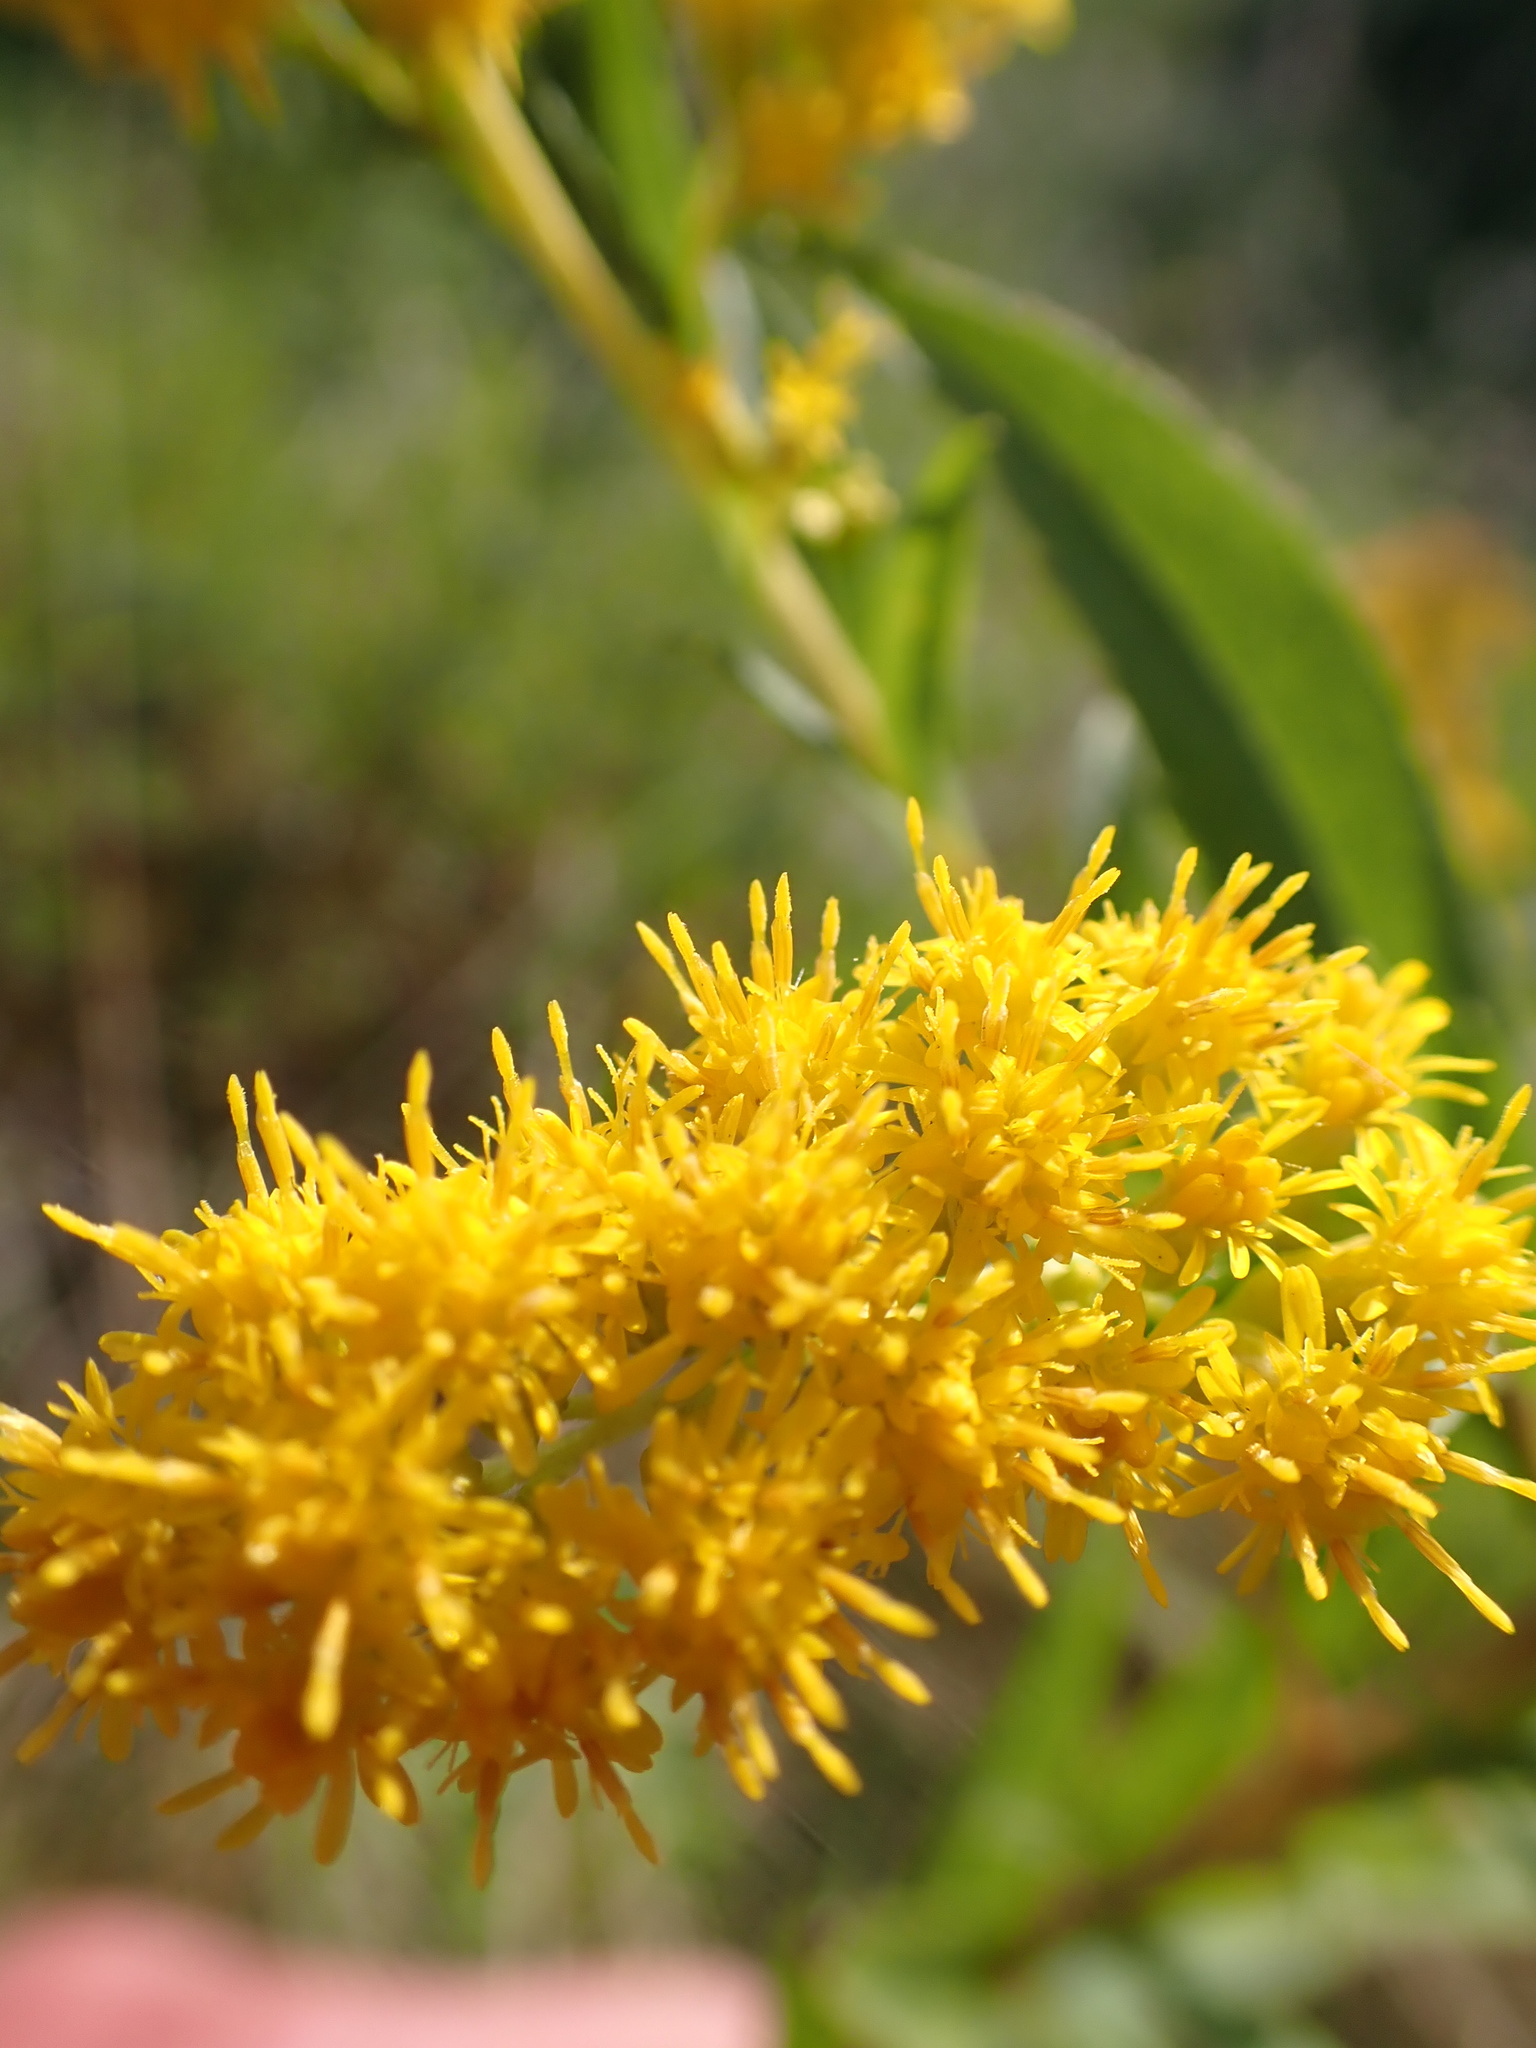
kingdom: Plantae
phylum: Tracheophyta
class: Magnoliopsida
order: Asterales
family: Asteraceae
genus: Solidago
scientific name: Solidago gigantea
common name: Giant goldenrod
